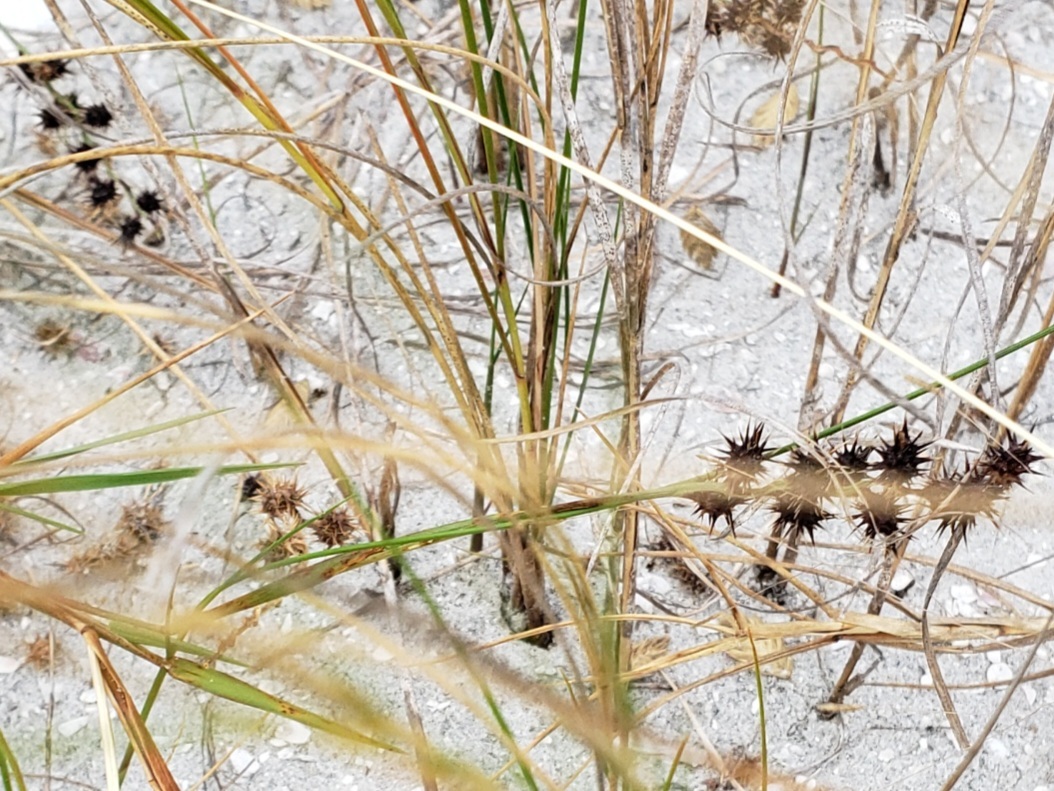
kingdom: Plantae
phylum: Tracheophyta
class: Liliopsida
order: Poales
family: Poaceae
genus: Cenchrus
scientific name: Cenchrus tribuloides
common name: Dune sandbur
